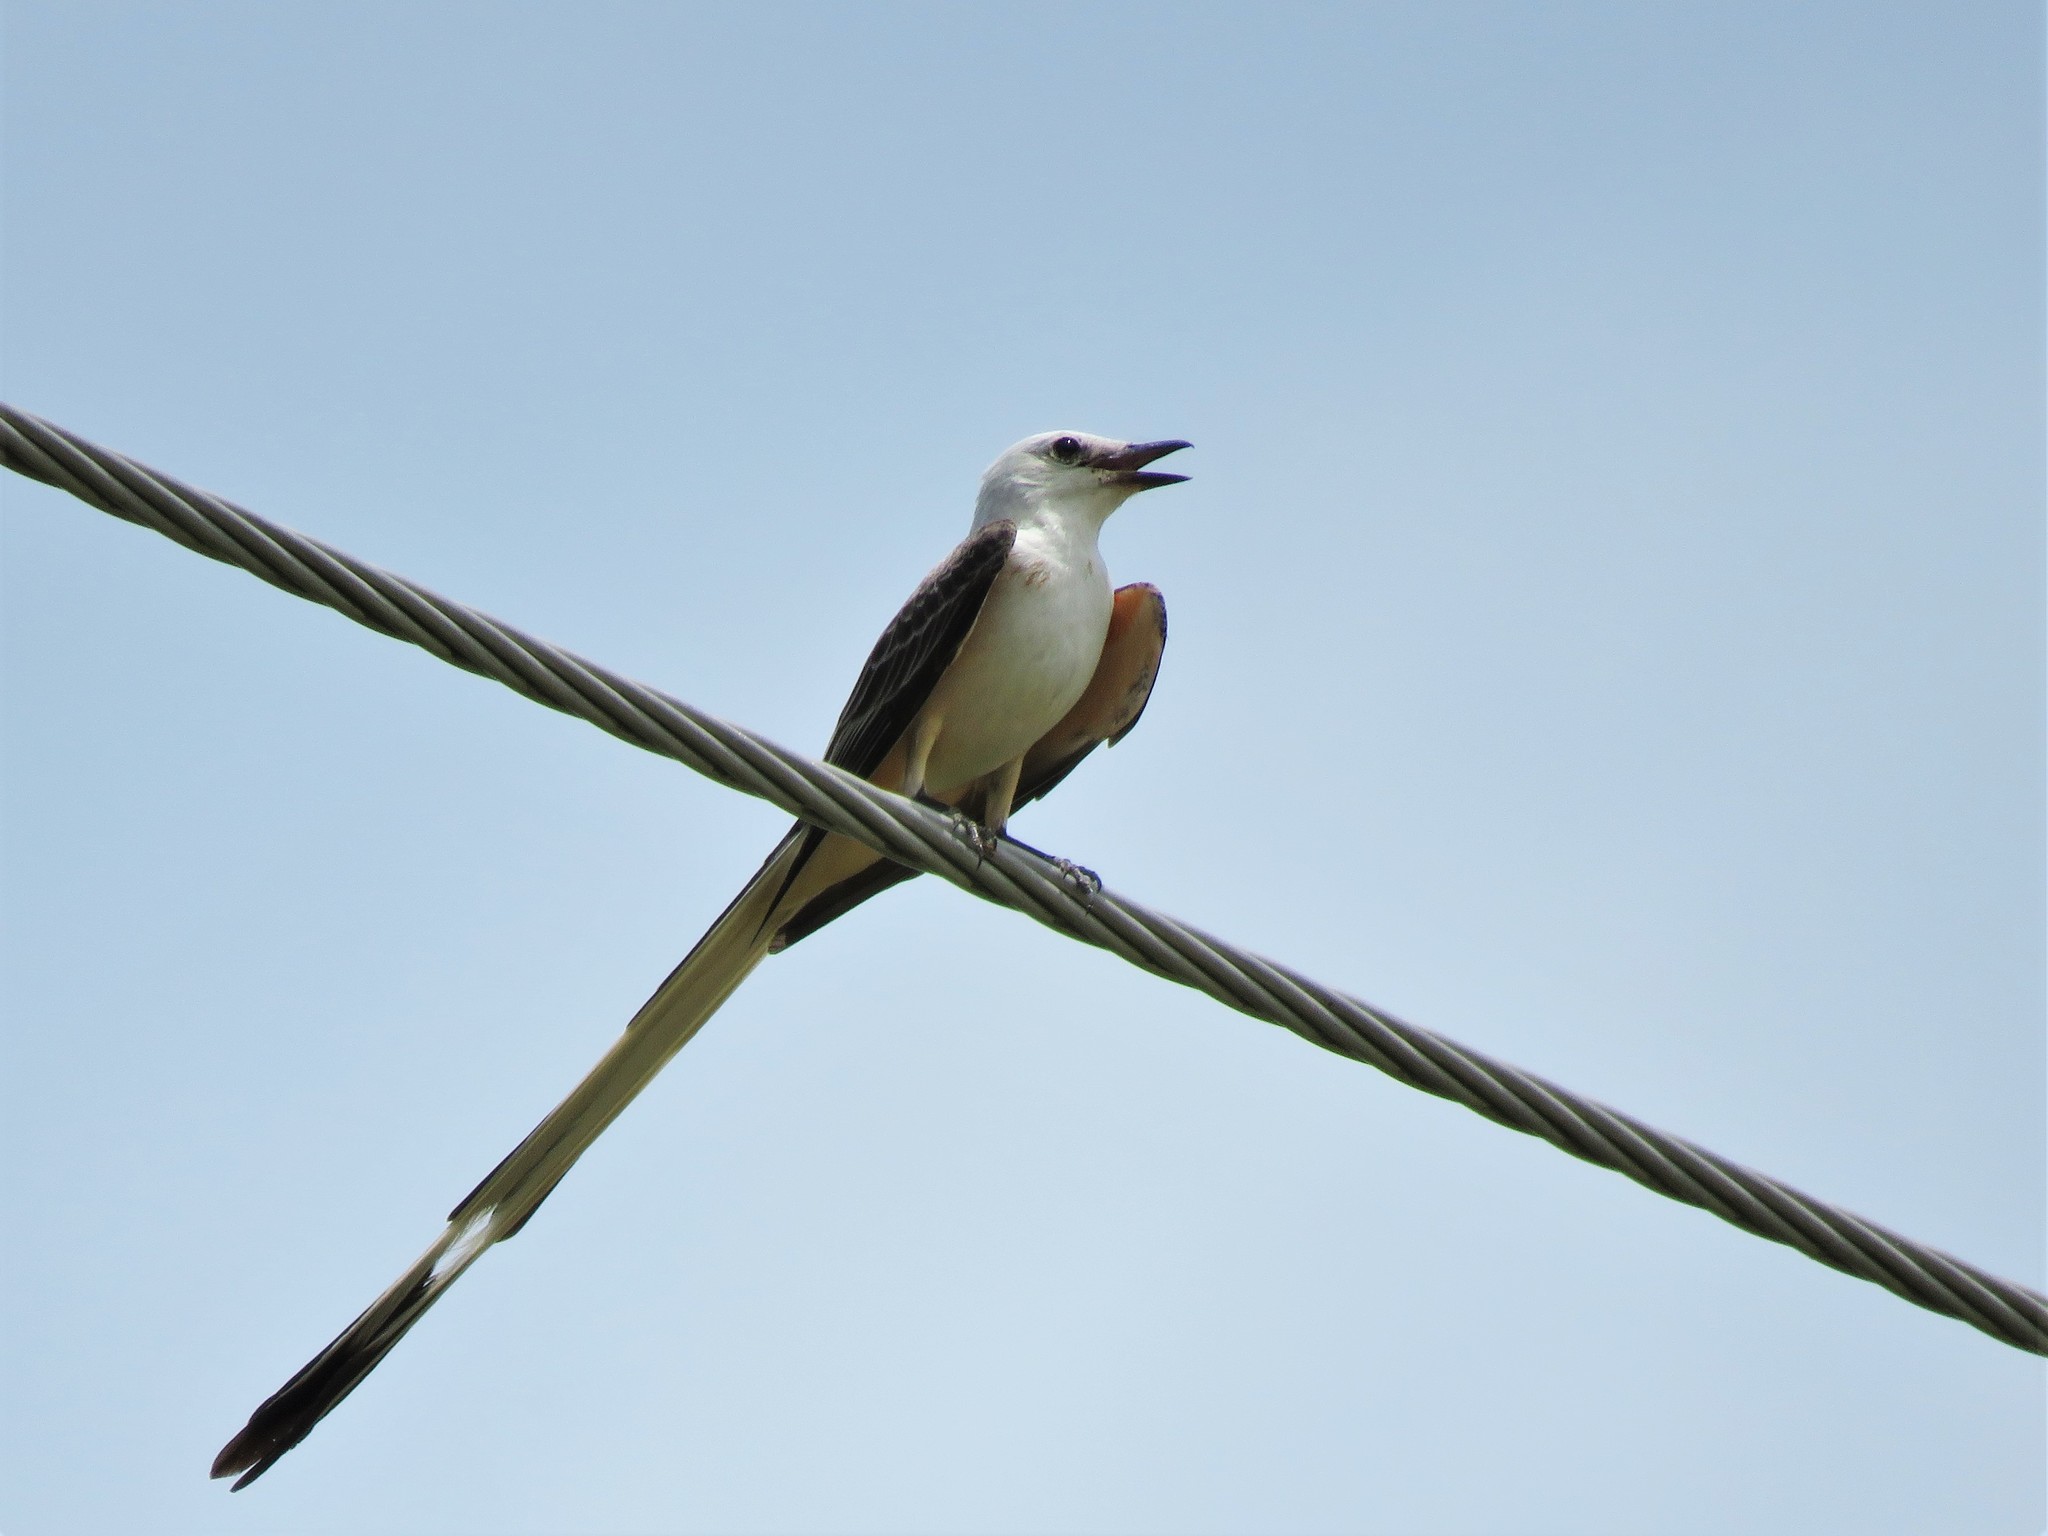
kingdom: Animalia
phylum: Chordata
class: Aves
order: Passeriformes
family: Tyrannidae
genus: Tyrannus
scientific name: Tyrannus forficatus
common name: Scissor-tailed flycatcher
